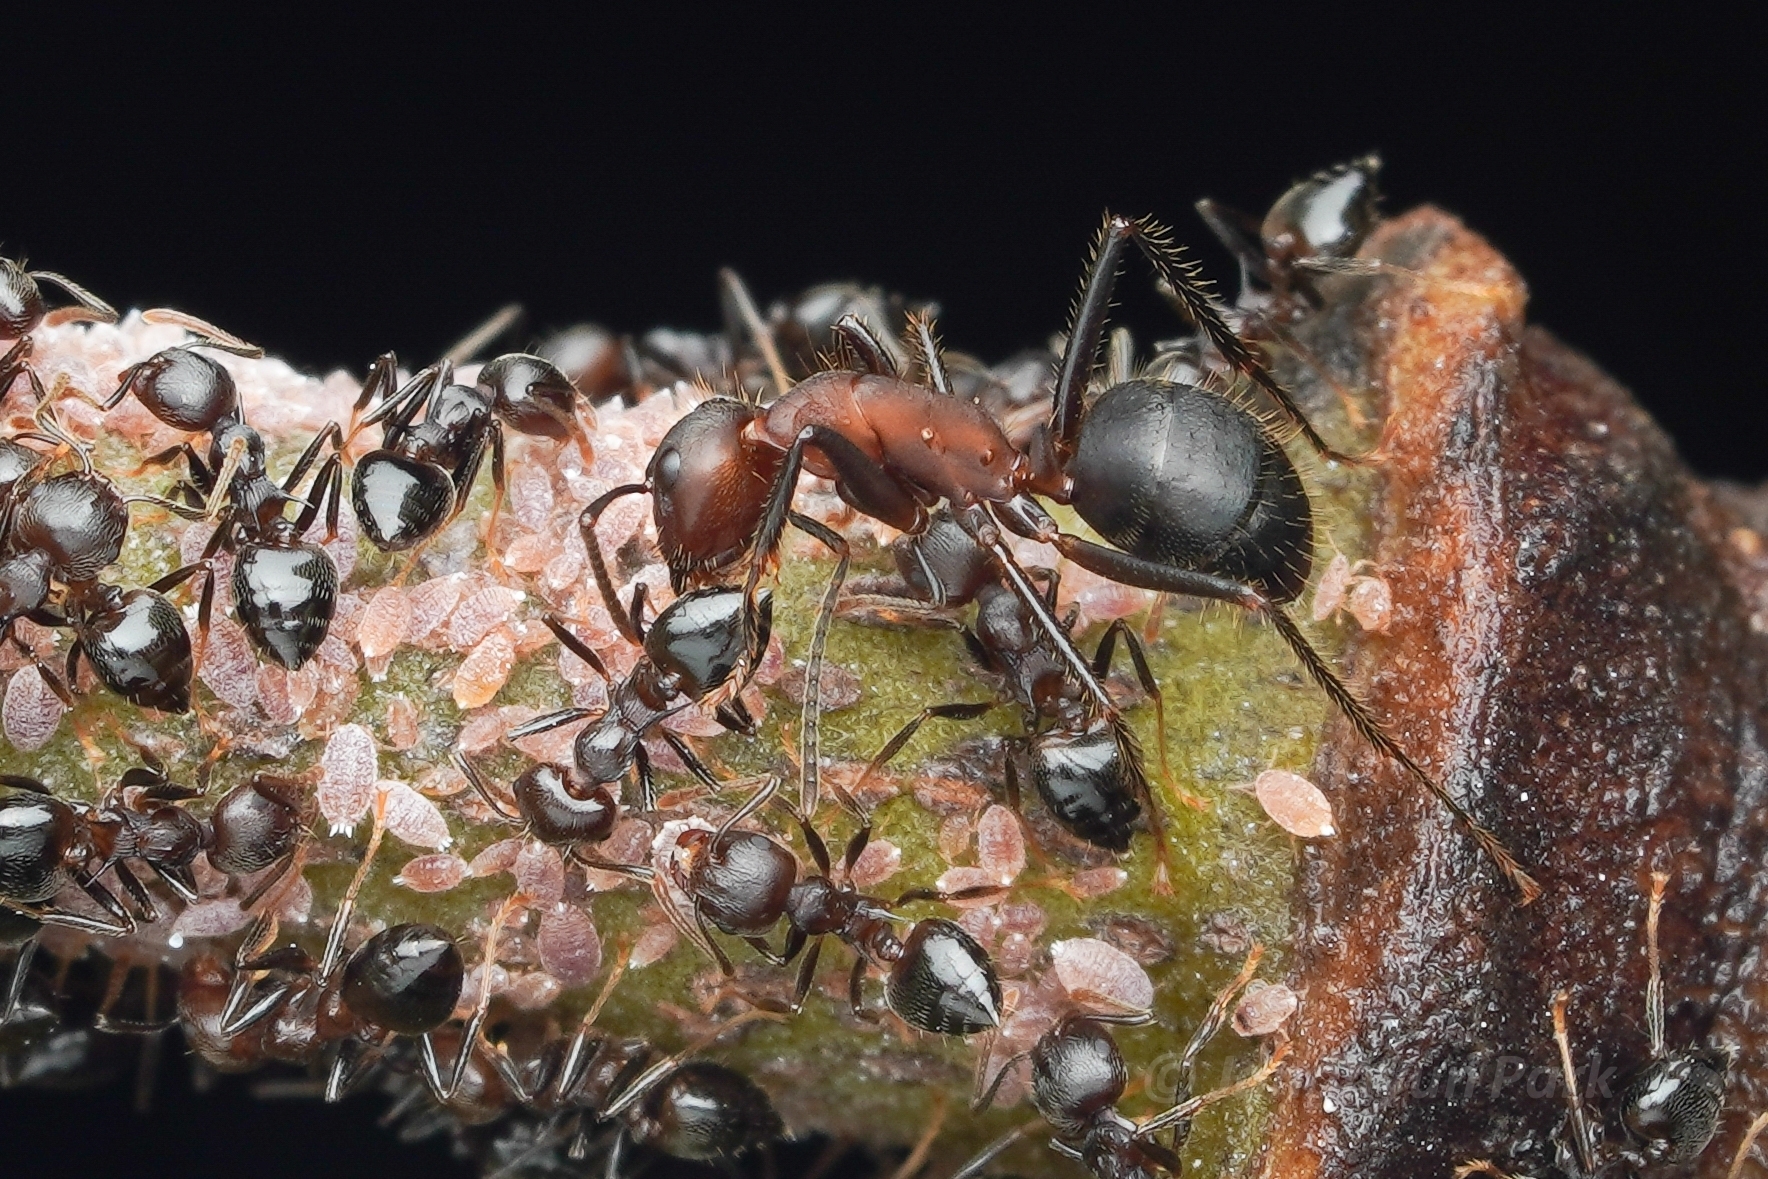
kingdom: Animalia
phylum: Arthropoda
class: Insecta
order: Hymenoptera
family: Formicidae
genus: Camponotus
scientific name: Camponotus misturus
